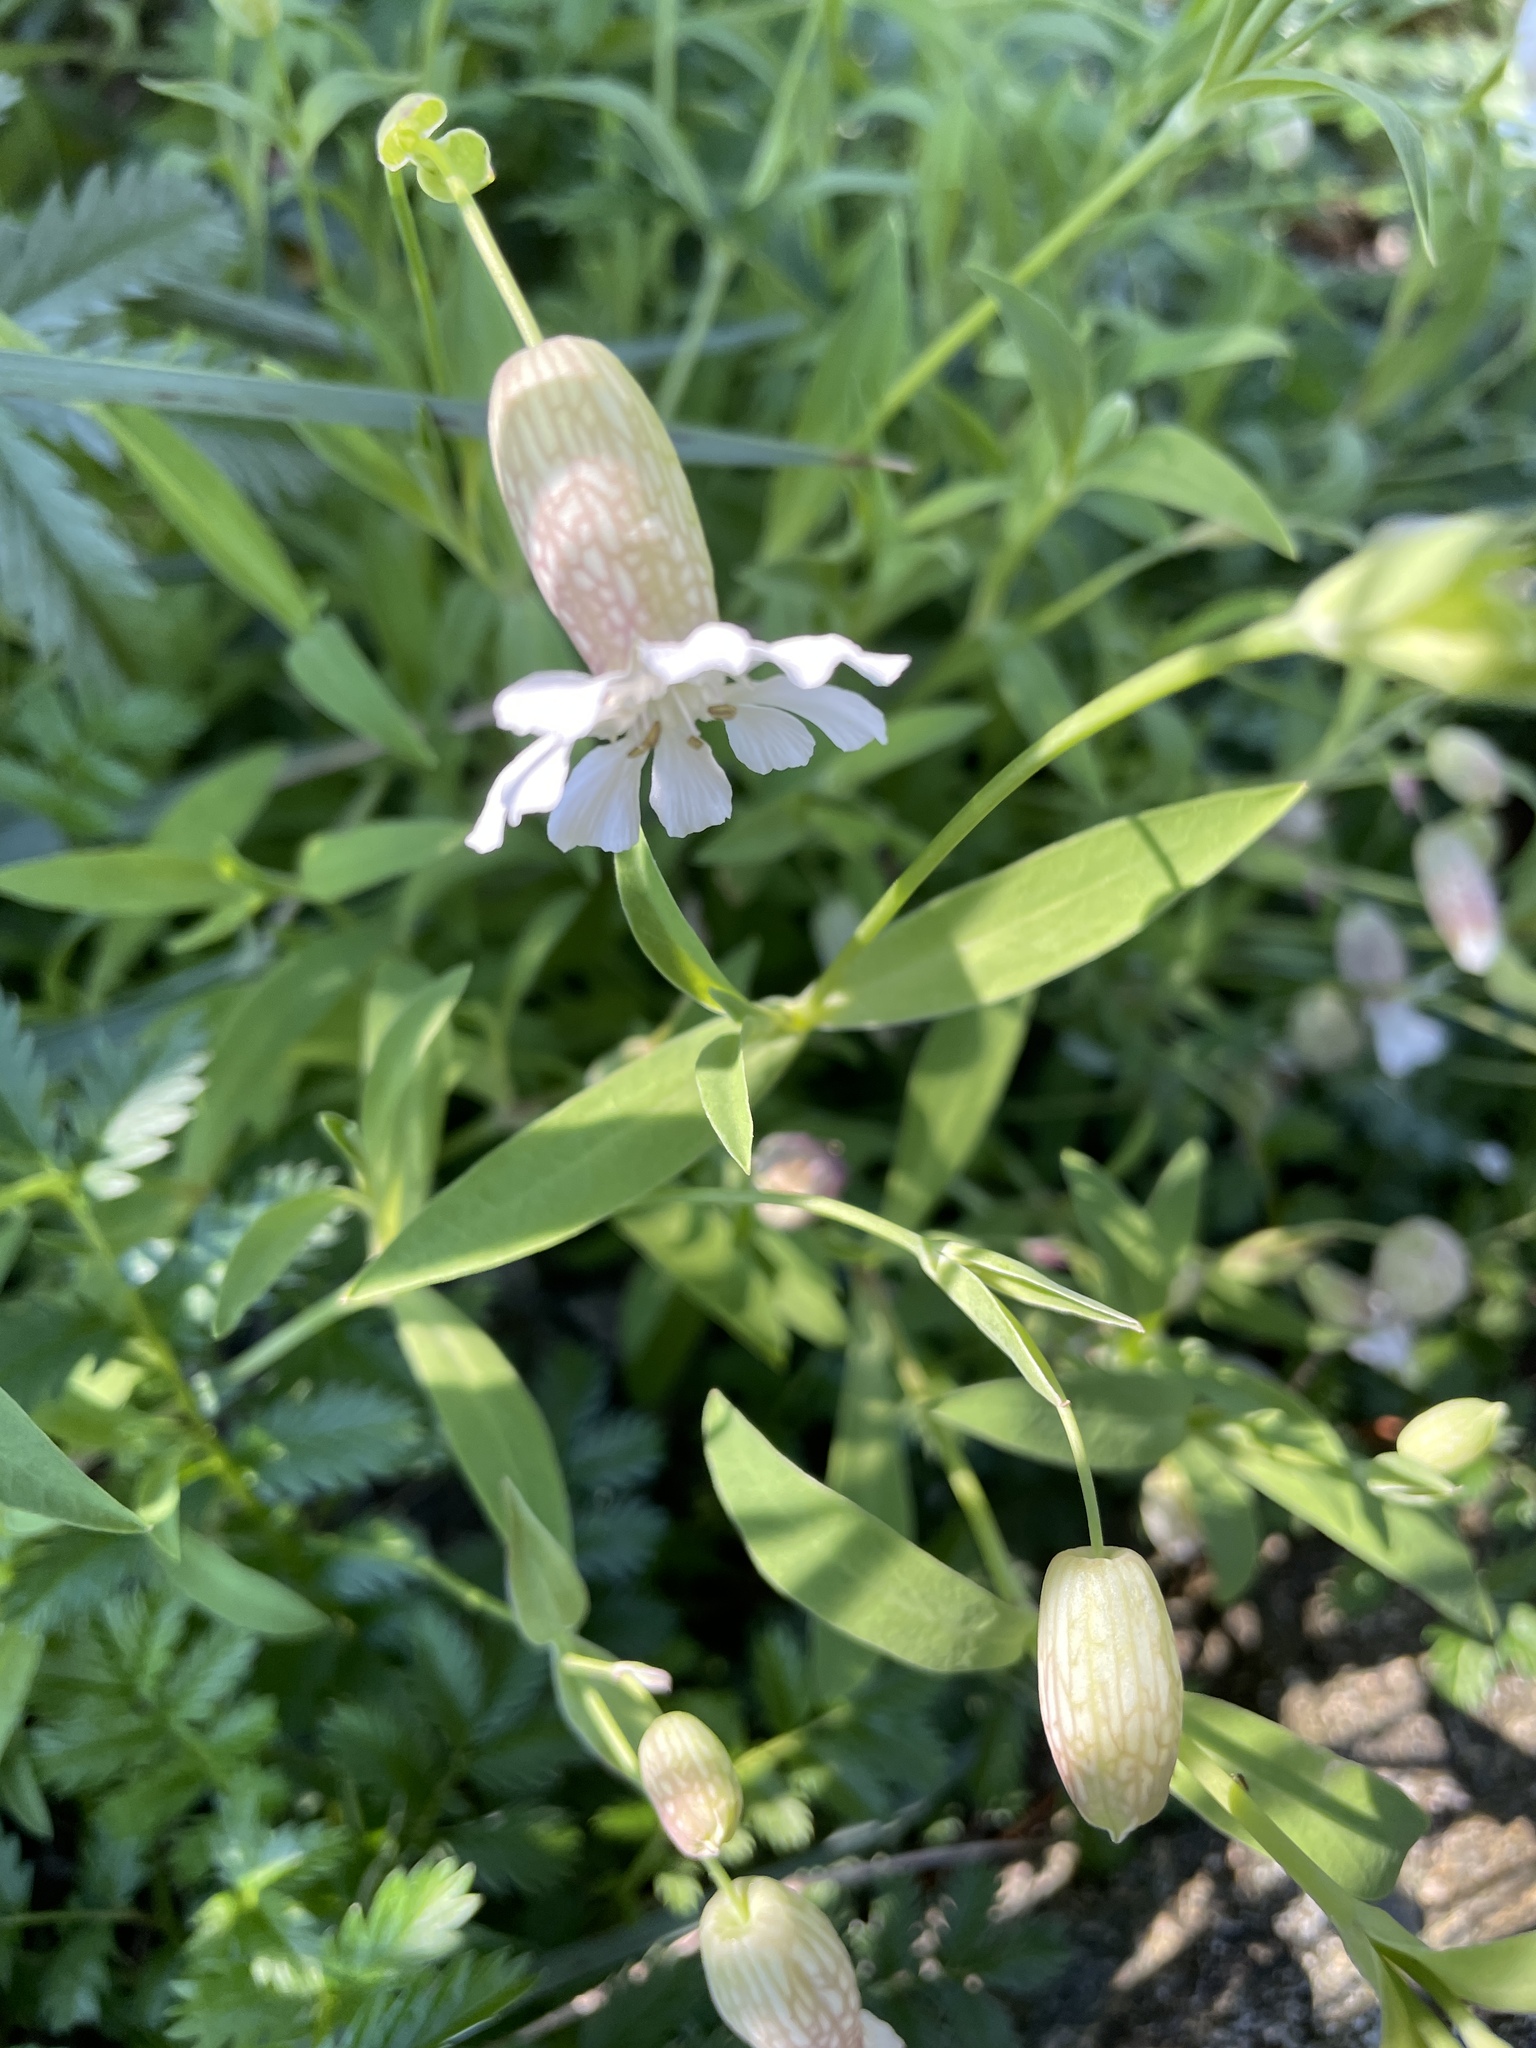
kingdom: Plantae
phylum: Tracheophyta
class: Magnoliopsida
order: Caryophyllales
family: Caryophyllaceae
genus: Silene
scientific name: Silene vulgaris
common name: Bladder campion
